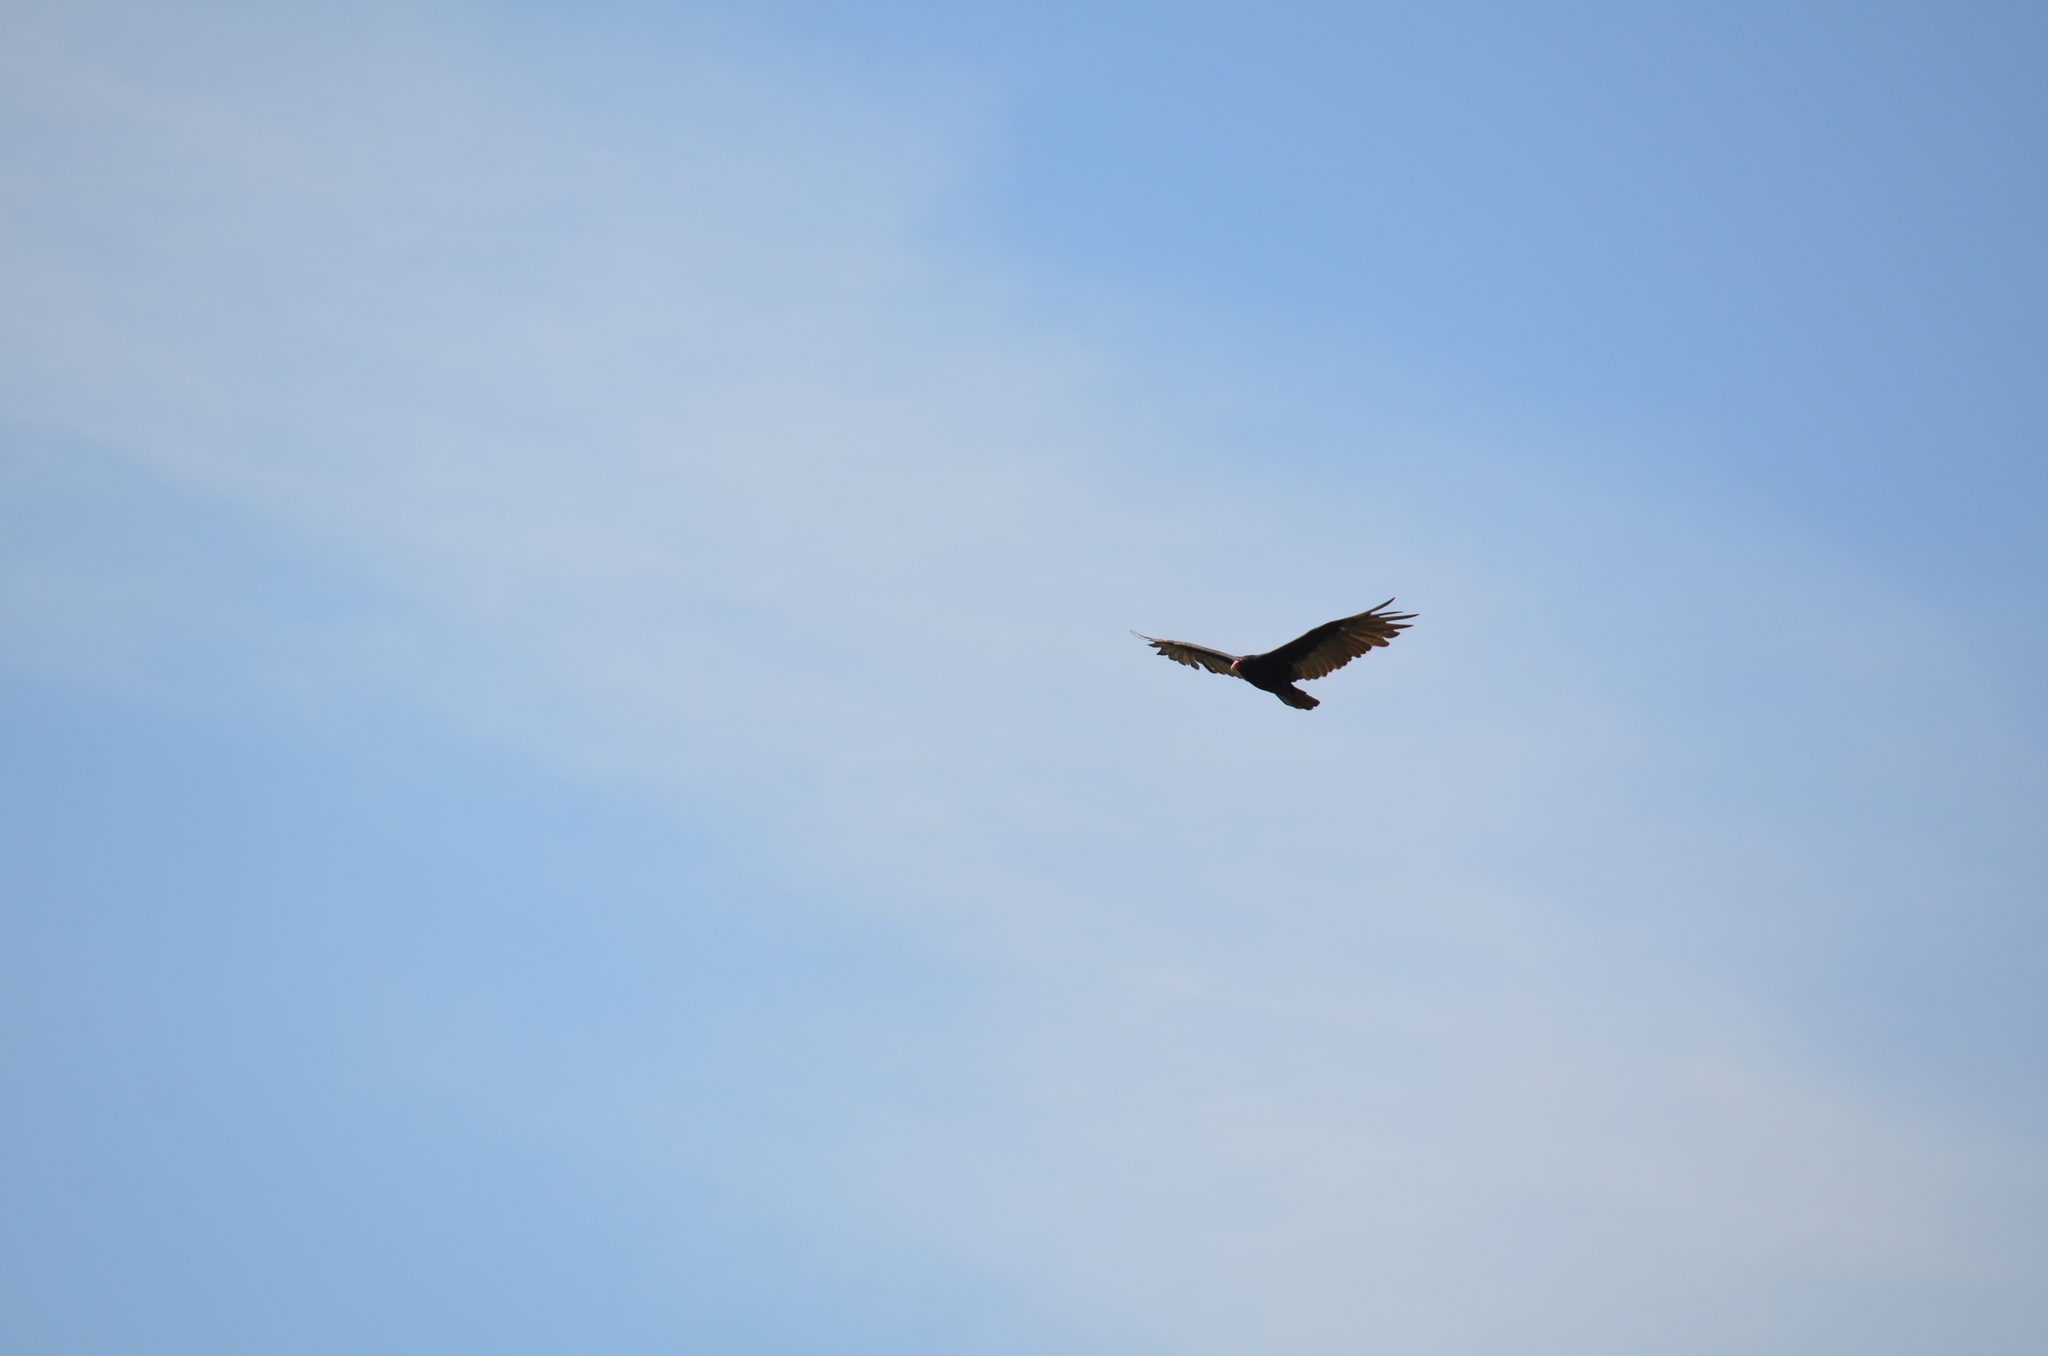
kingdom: Animalia
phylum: Chordata
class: Aves
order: Accipitriformes
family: Cathartidae
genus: Cathartes
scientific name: Cathartes aura
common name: Turkey vulture
